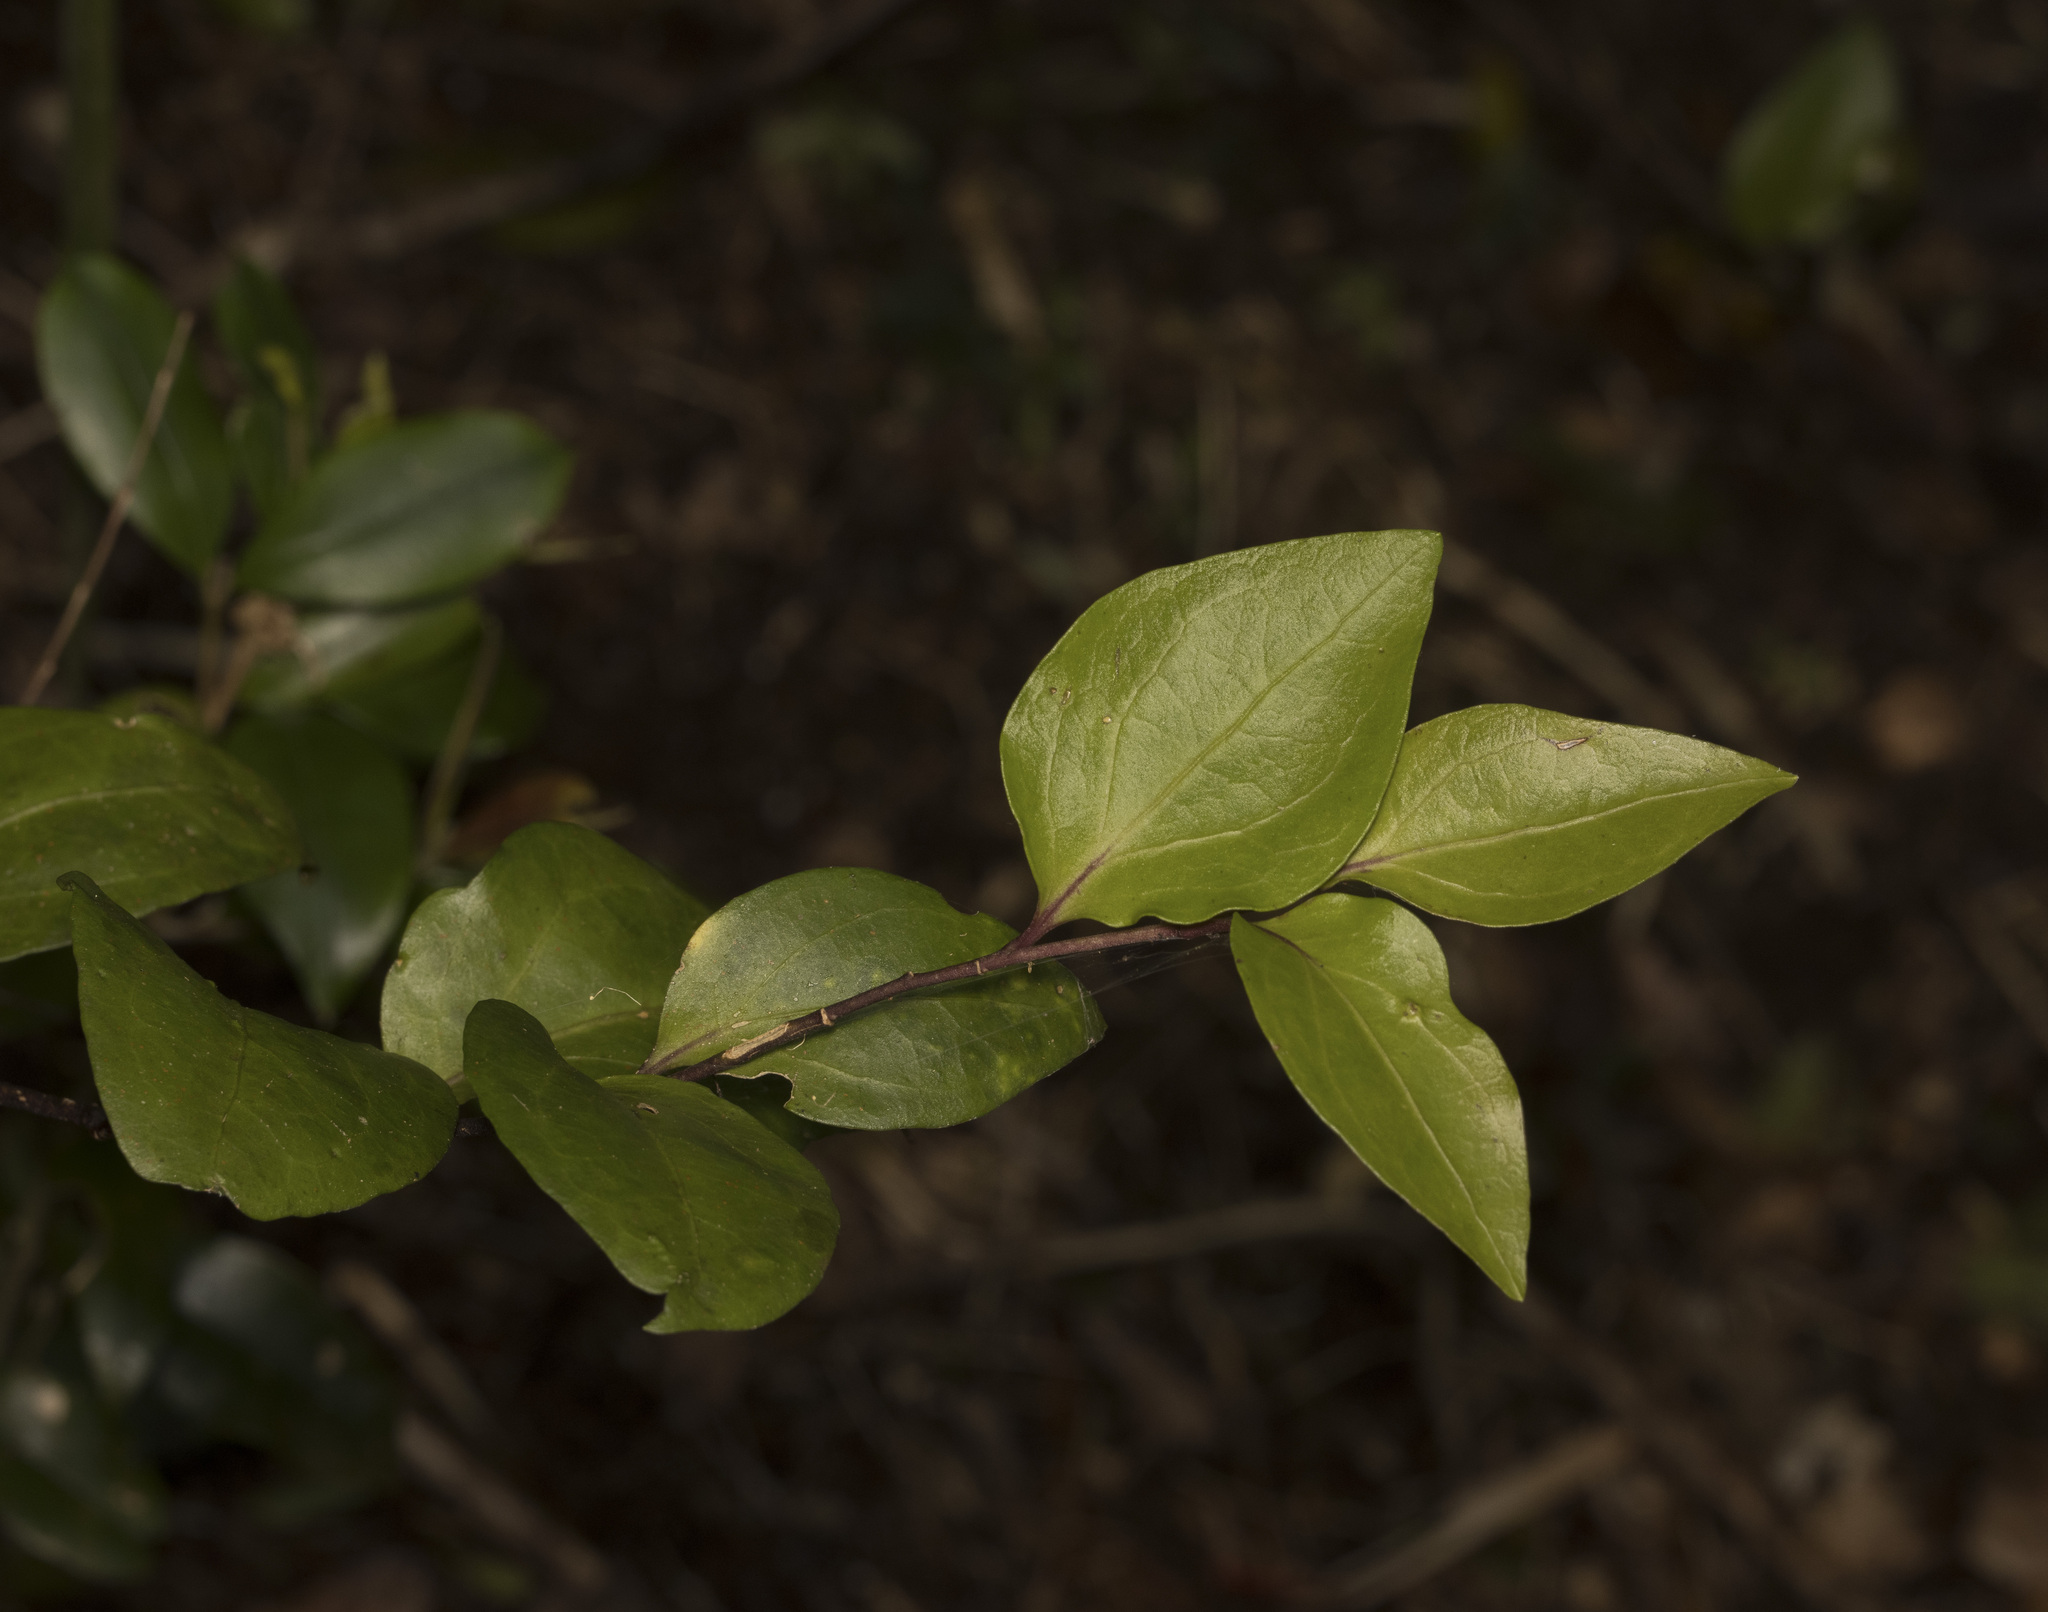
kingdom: Plantae
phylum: Tracheophyta
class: Magnoliopsida
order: Apiales
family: Griseliniaceae
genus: Griselinia
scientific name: Griselinia racemosa
